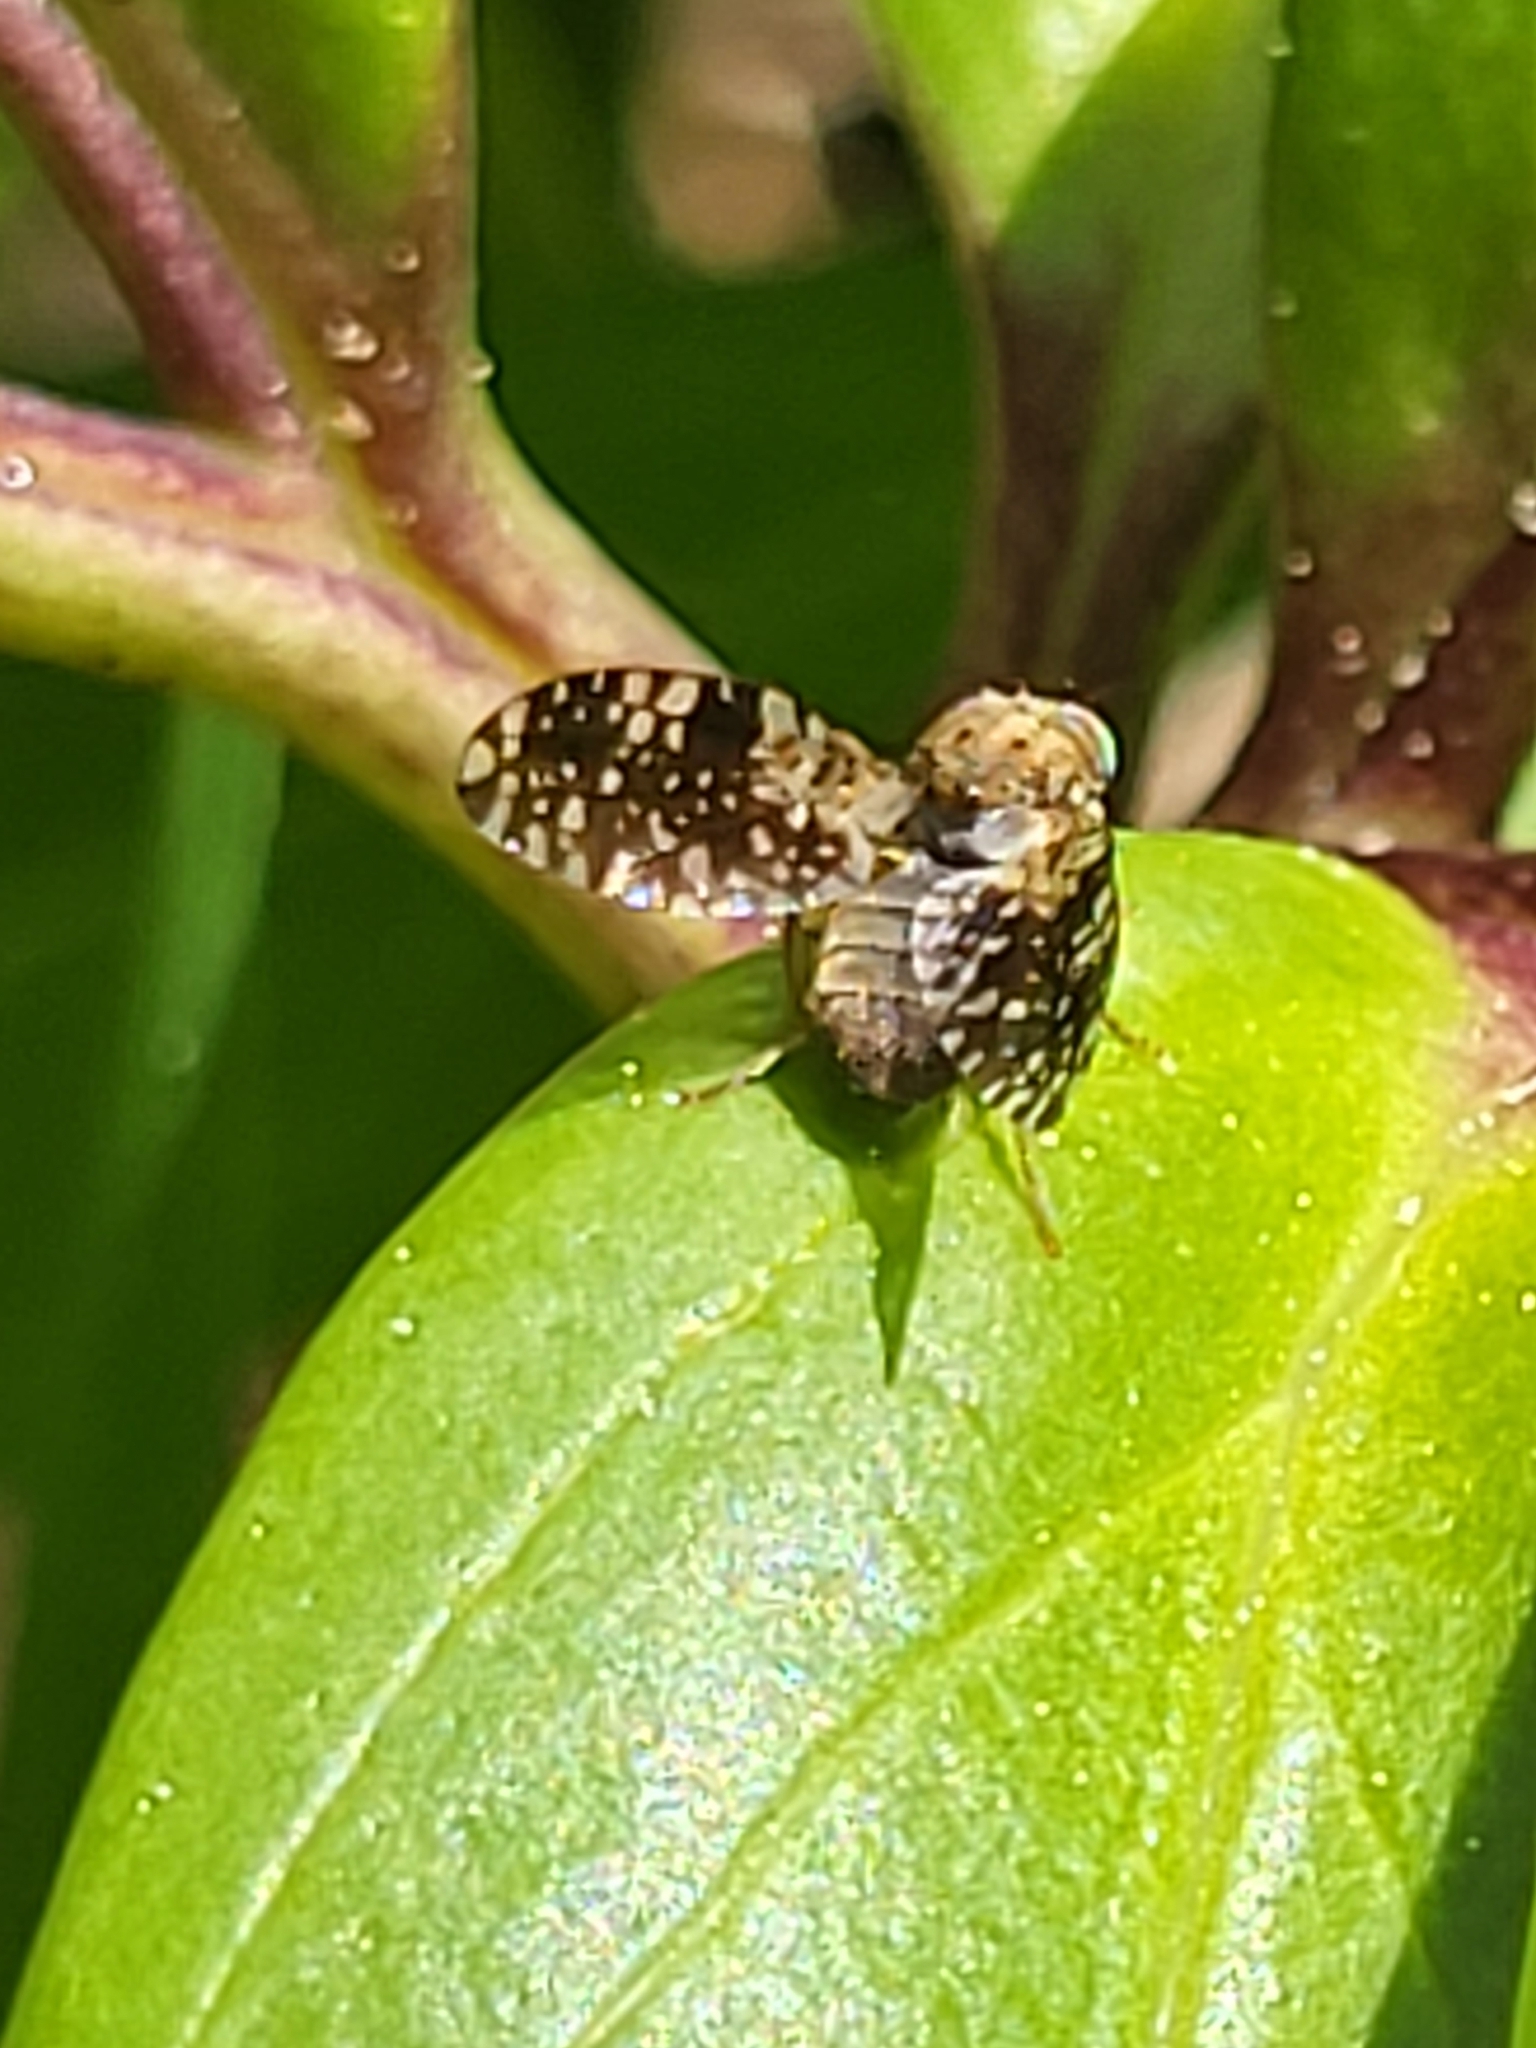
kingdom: Animalia
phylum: Arthropoda
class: Insecta
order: Diptera
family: Tephritidae
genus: Tephritis
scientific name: Tephritis conura
